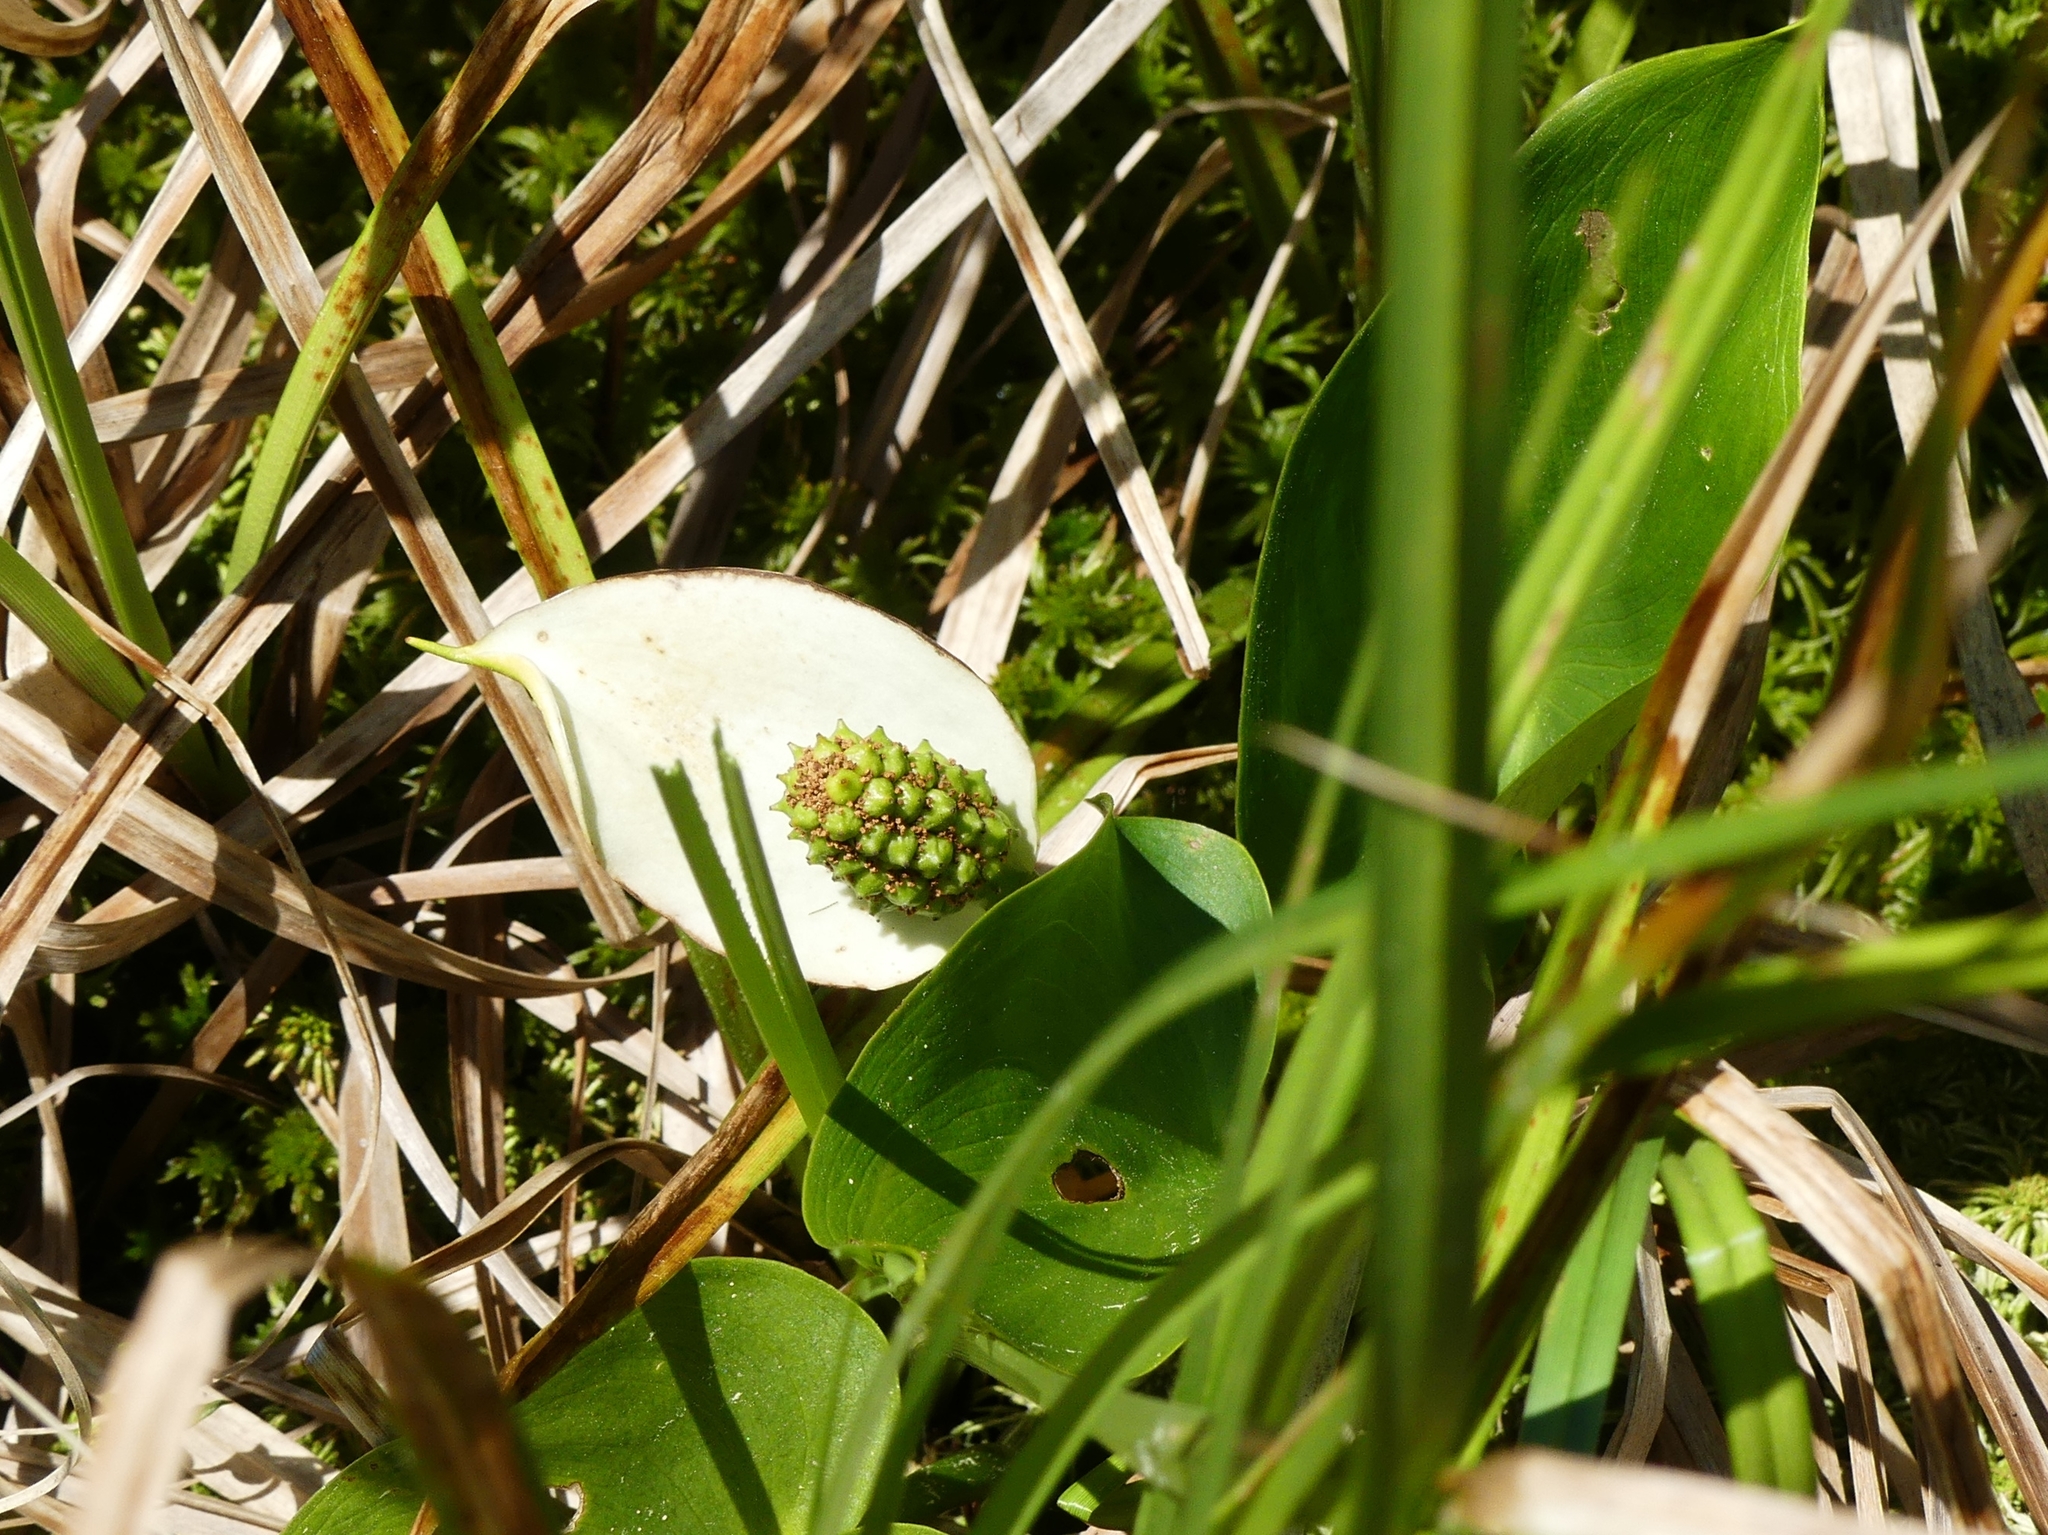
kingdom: Plantae
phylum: Tracheophyta
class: Liliopsida
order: Alismatales
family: Araceae
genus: Calla
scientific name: Calla palustris
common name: Bog arum
